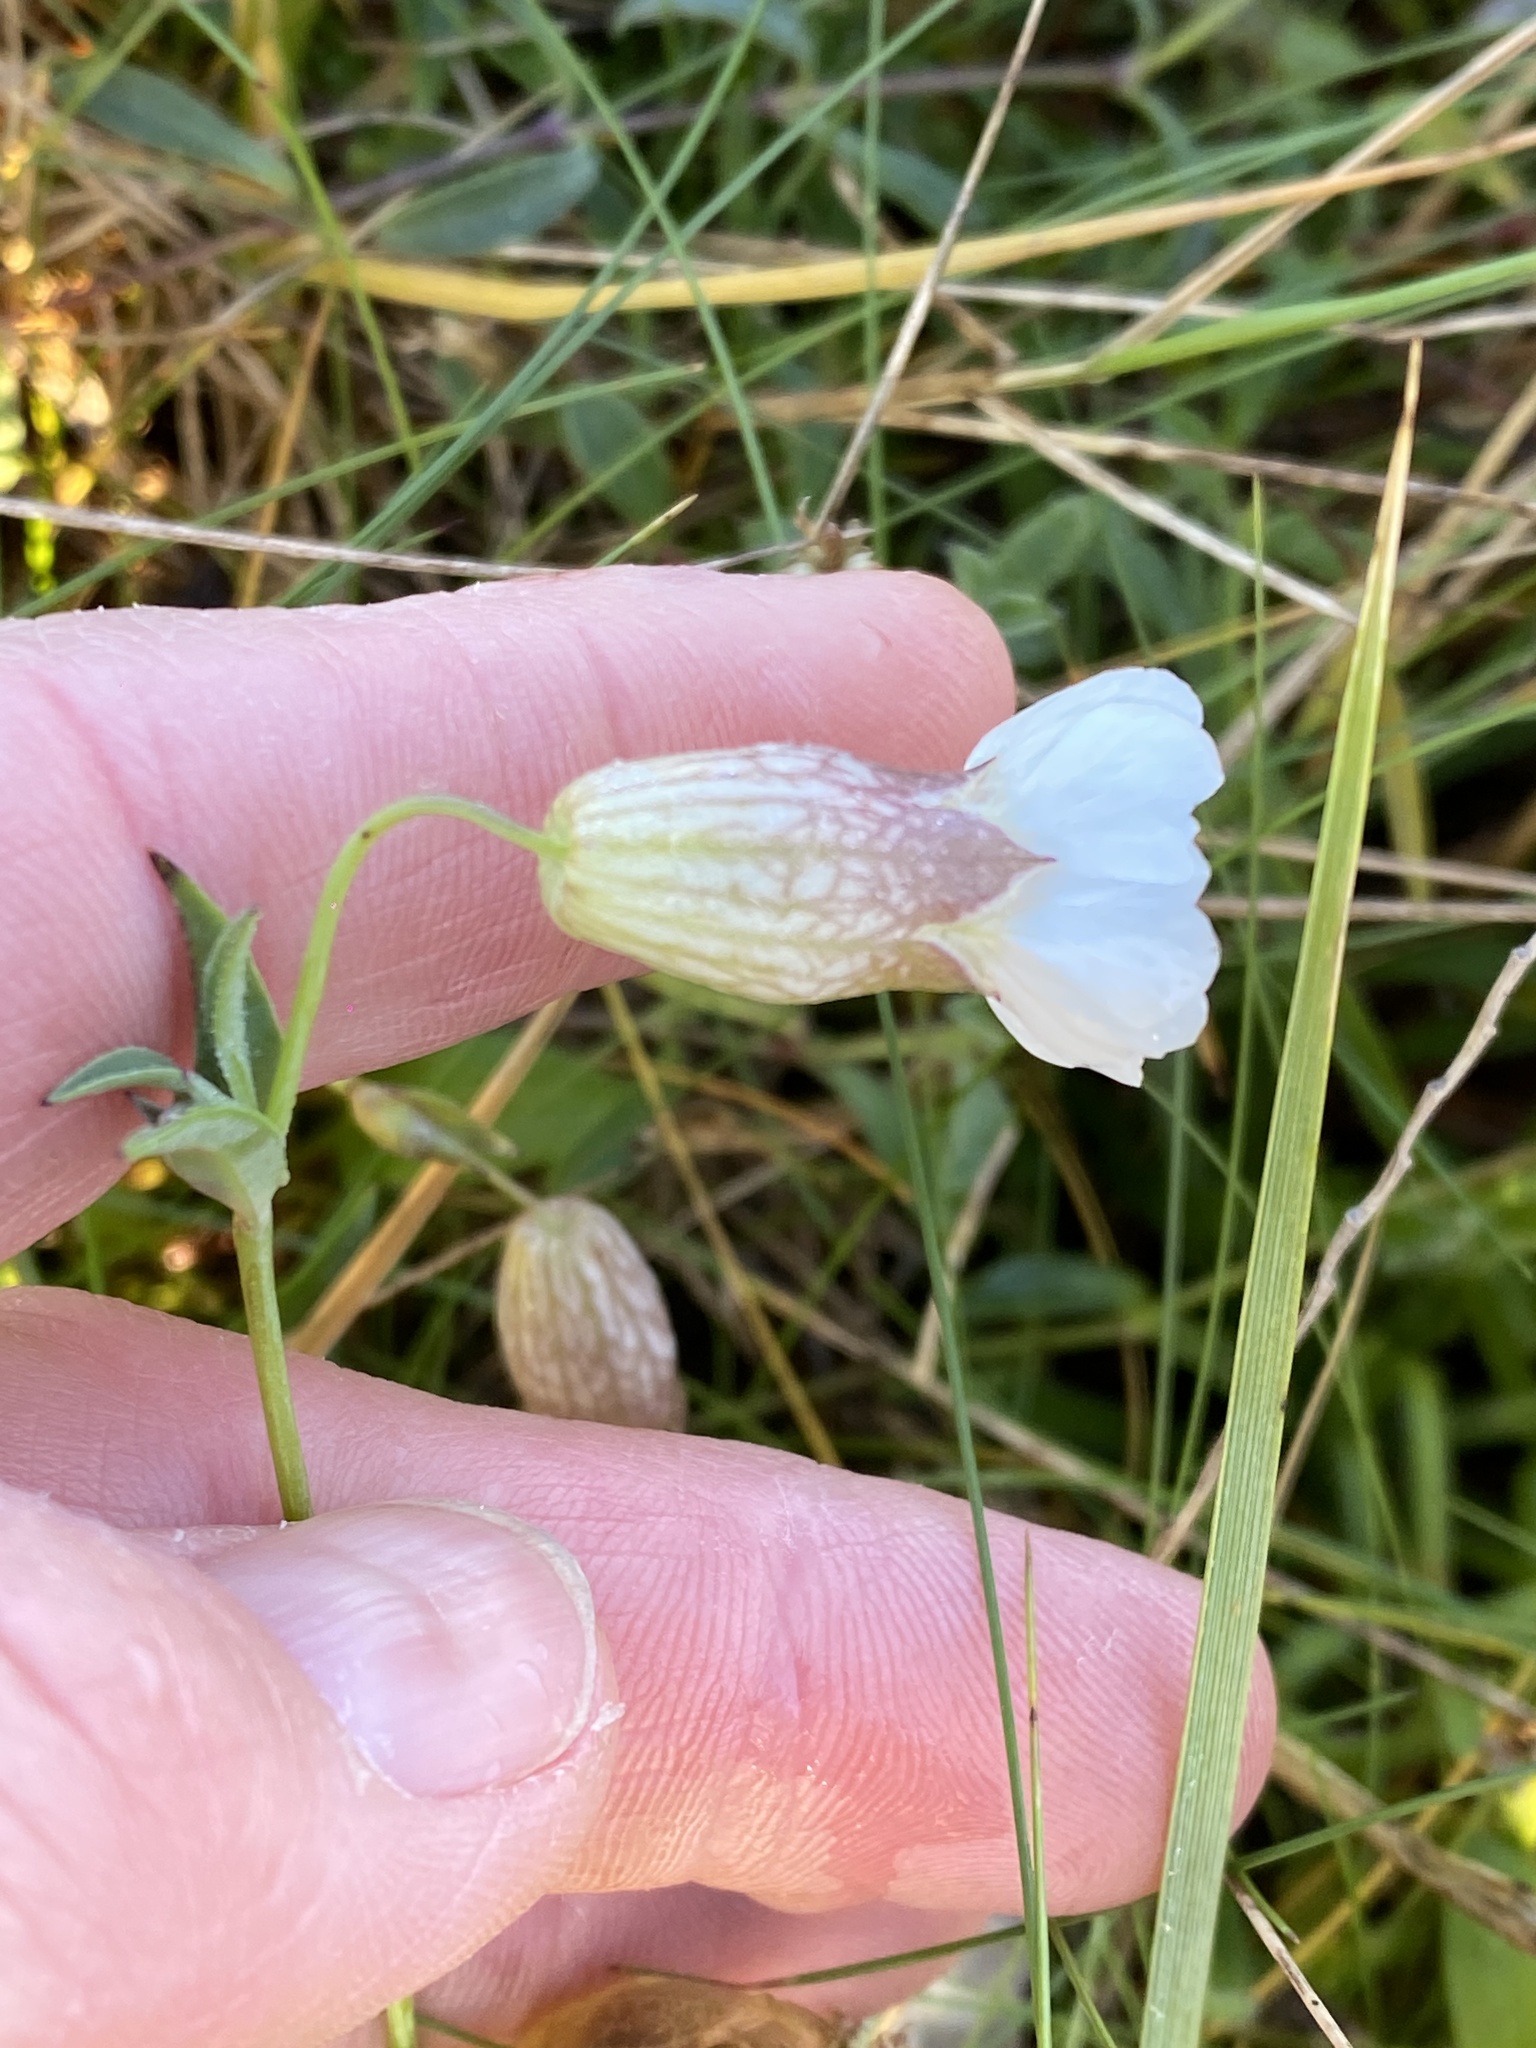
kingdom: Plantae
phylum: Tracheophyta
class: Magnoliopsida
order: Caryophyllales
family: Caryophyllaceae
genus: Silene
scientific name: Silene uniflora
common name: Sea campion
